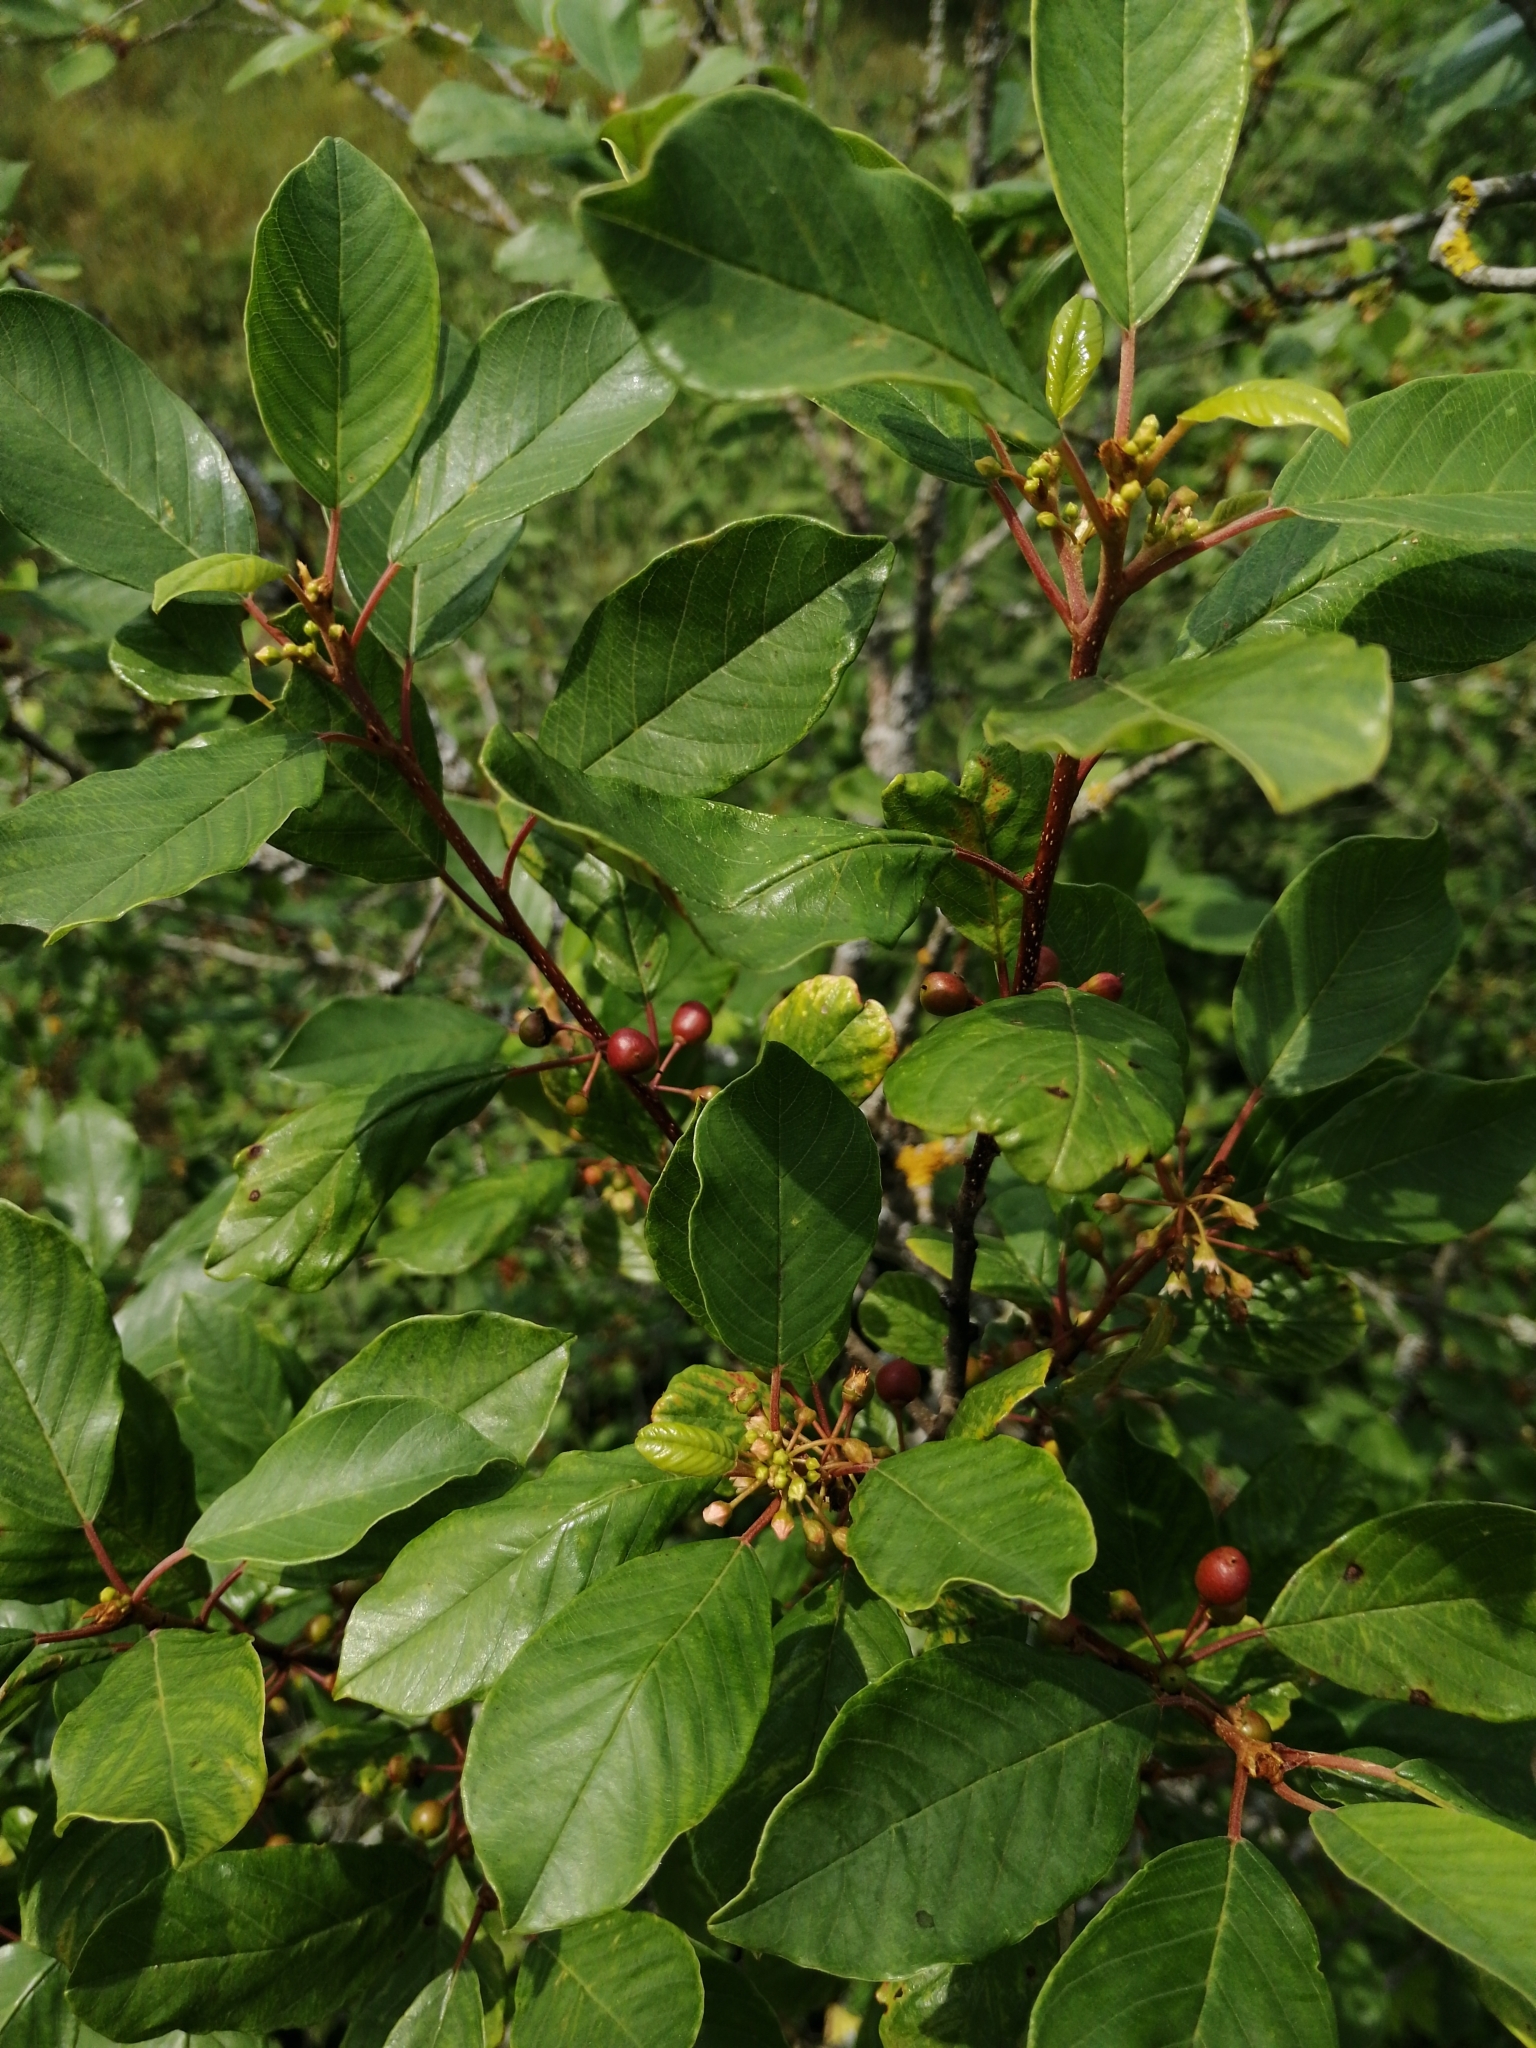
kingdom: Plantae
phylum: Tracheophyta
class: Magnoliopsida
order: Rosales
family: Rhamnaceae
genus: Frangula
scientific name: Frangula alnus
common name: Alder buckthorn
